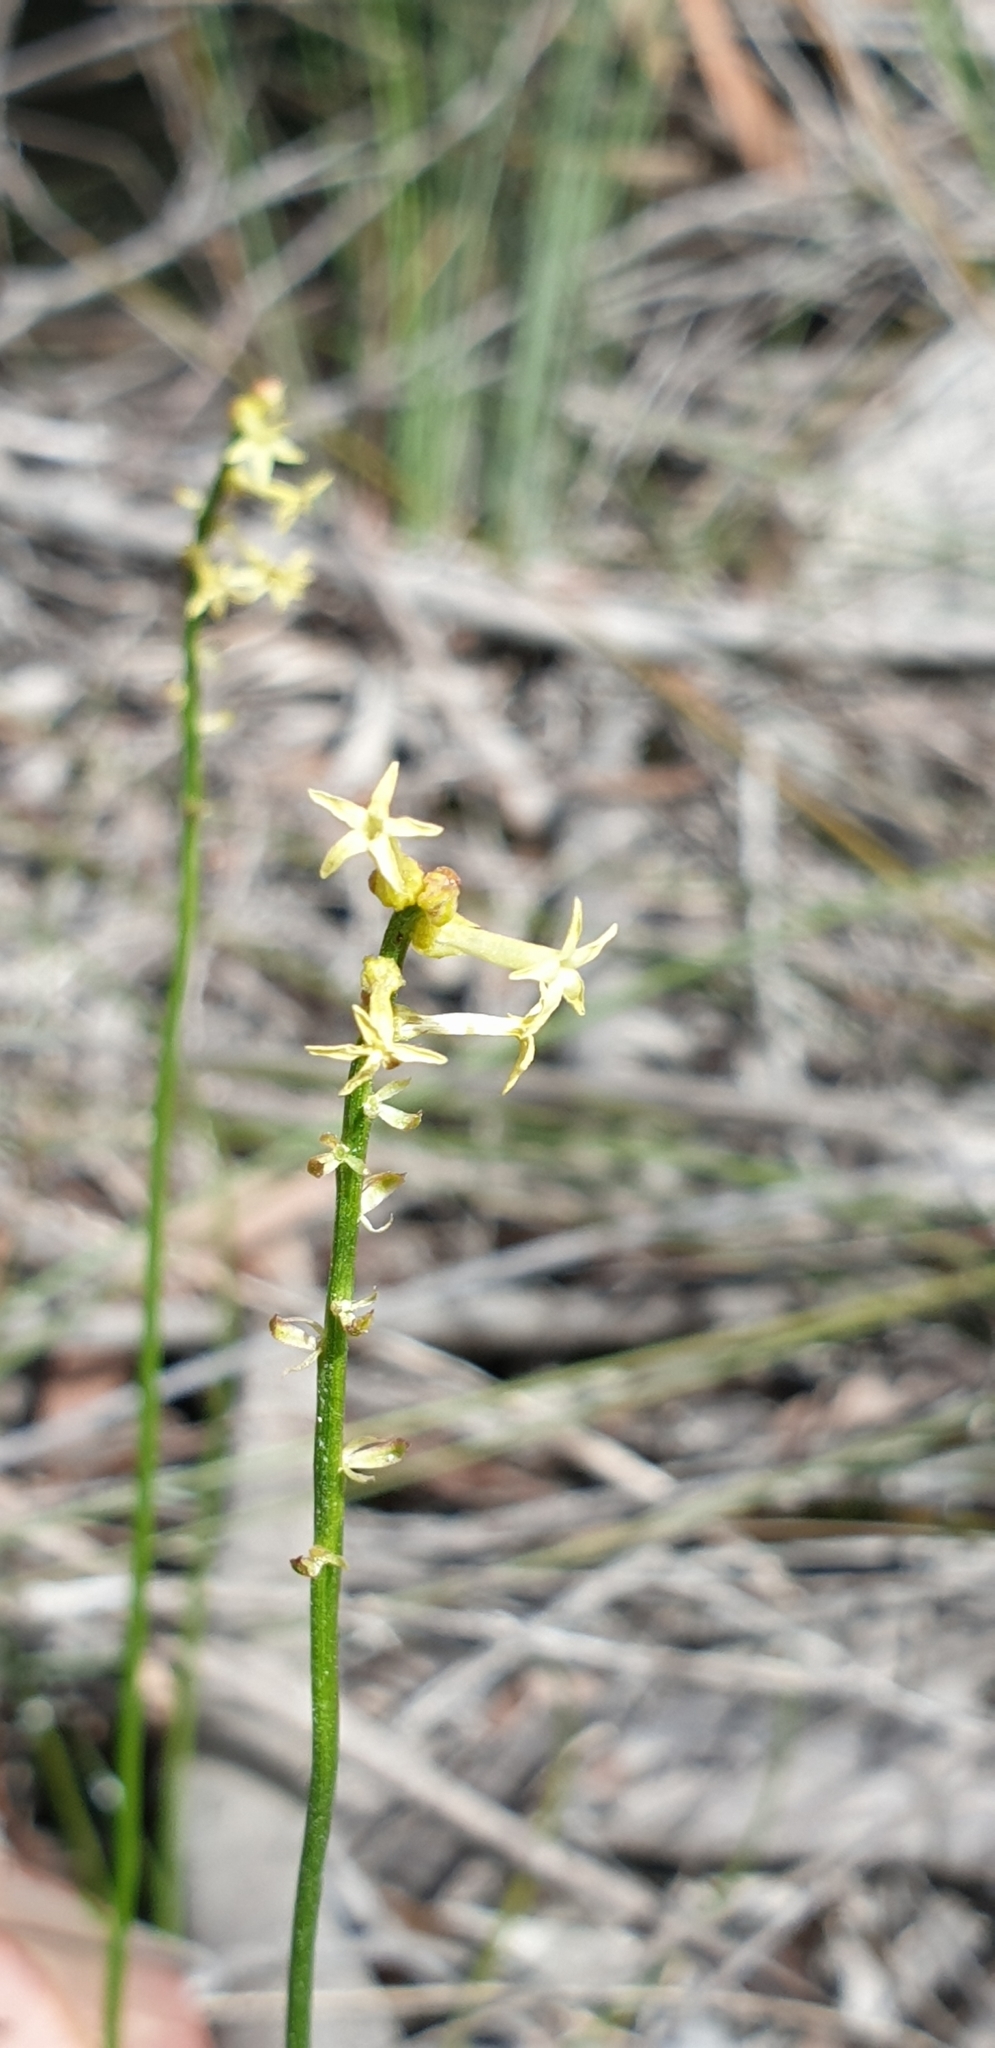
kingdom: Plantae
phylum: Tracheophyta
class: Magnoliopsida
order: Celastrales
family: Celastraceae
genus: Stackhousia
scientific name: Stackhousia monogyna
